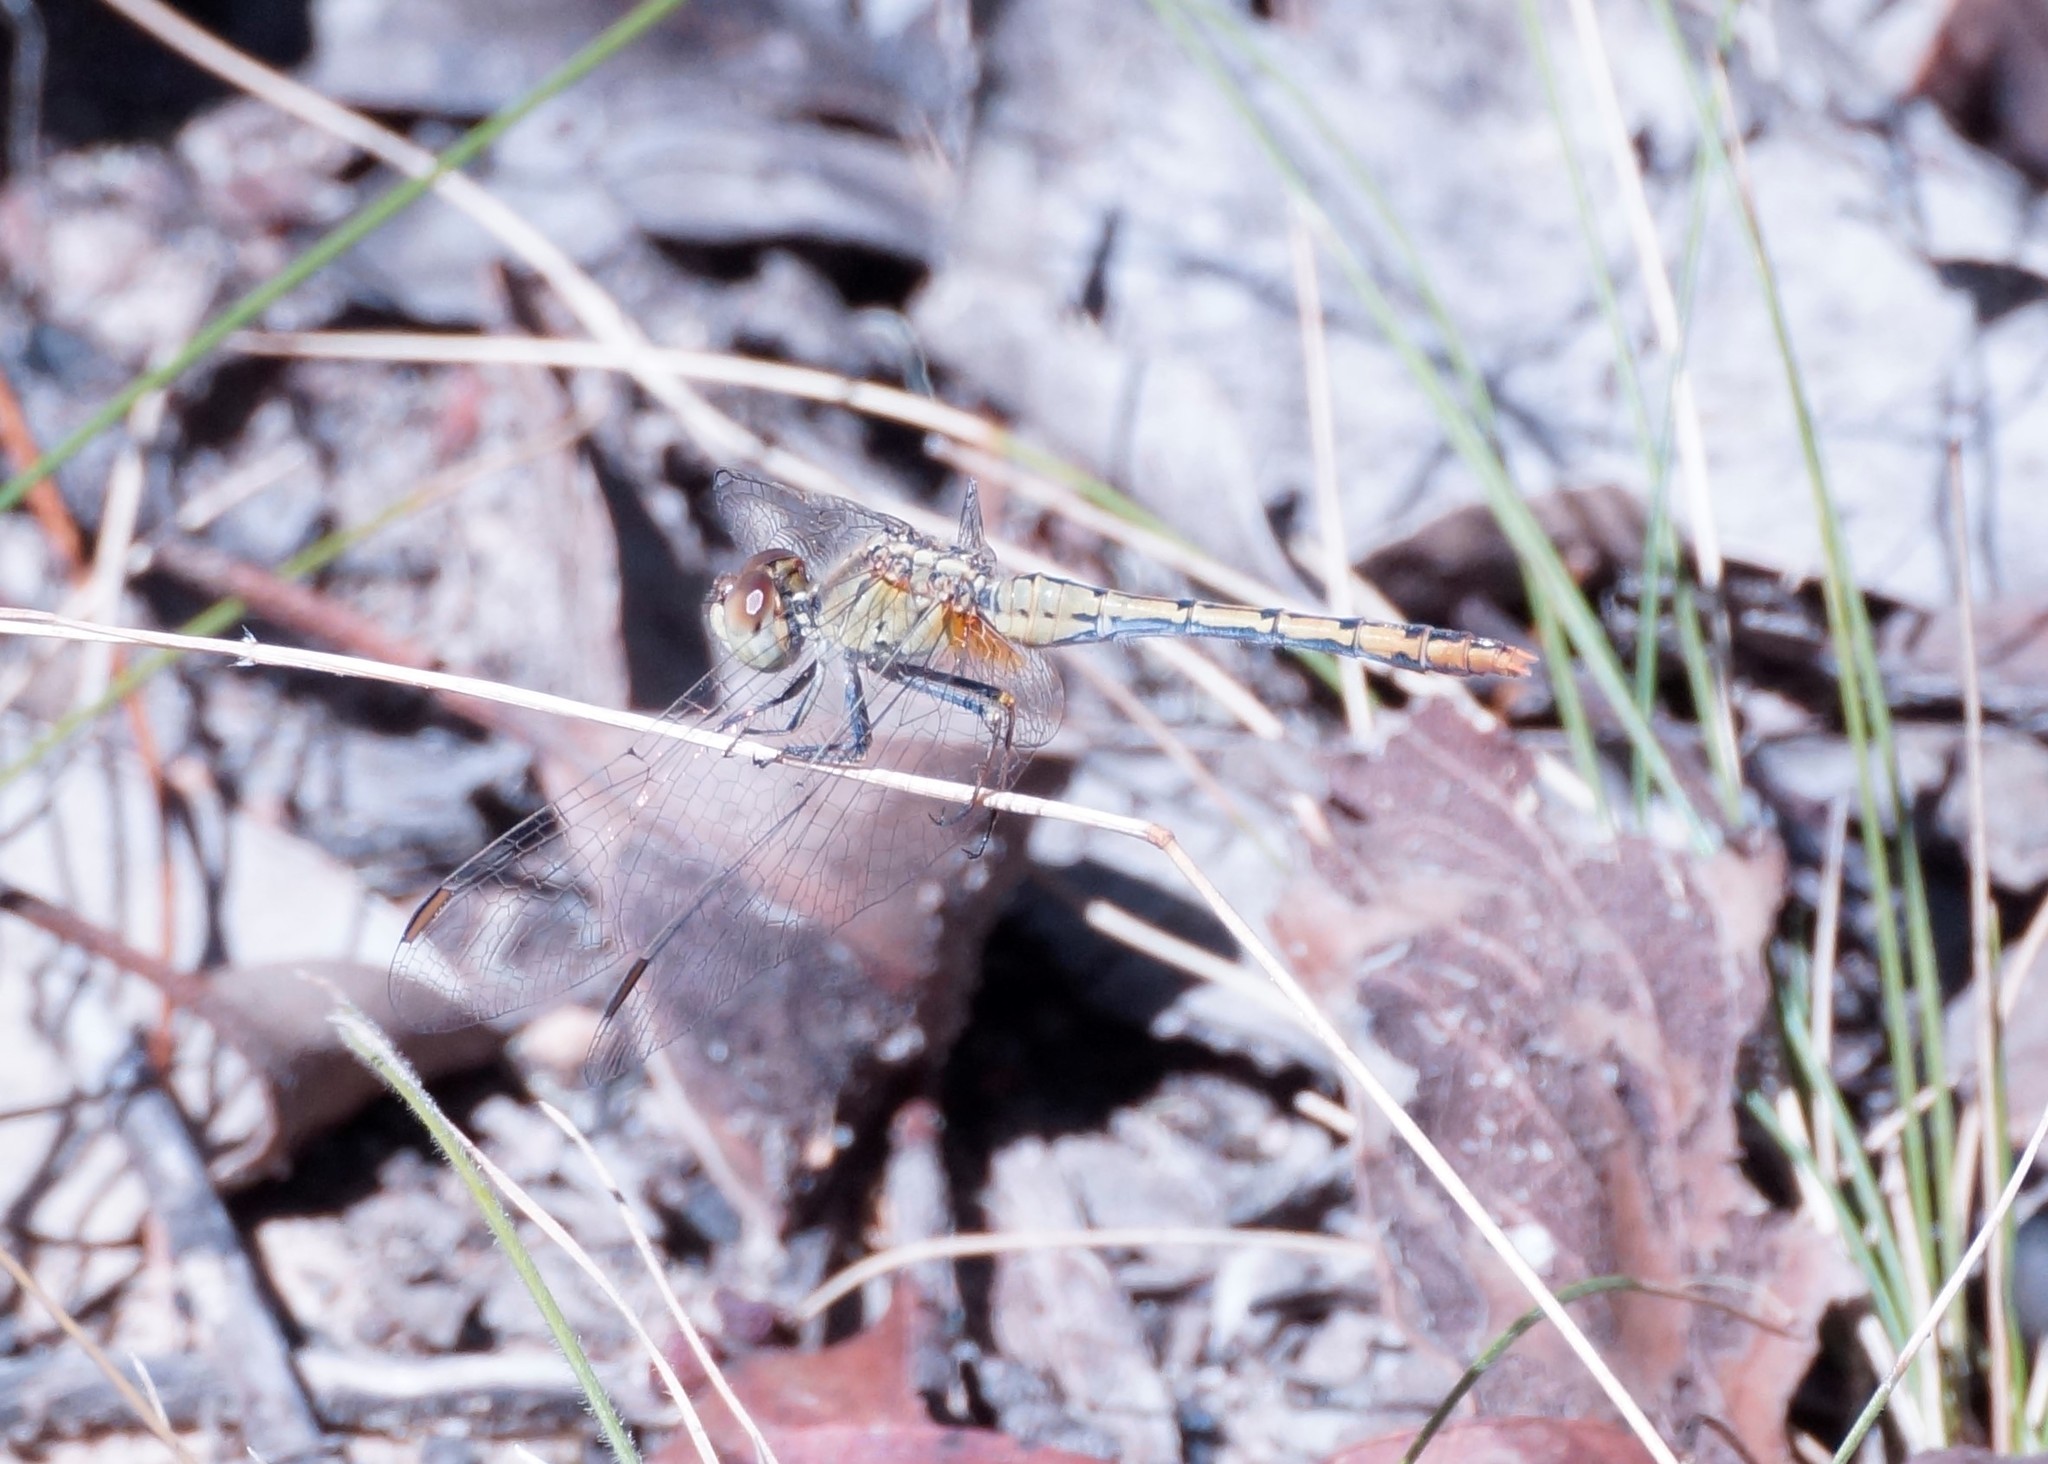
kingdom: Animalia
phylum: Arthropoda
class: Insecta
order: Odonata
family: Libellulidae
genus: Diplacodes
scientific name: Diplacodes bipunctata
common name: Red percher dragonfly
